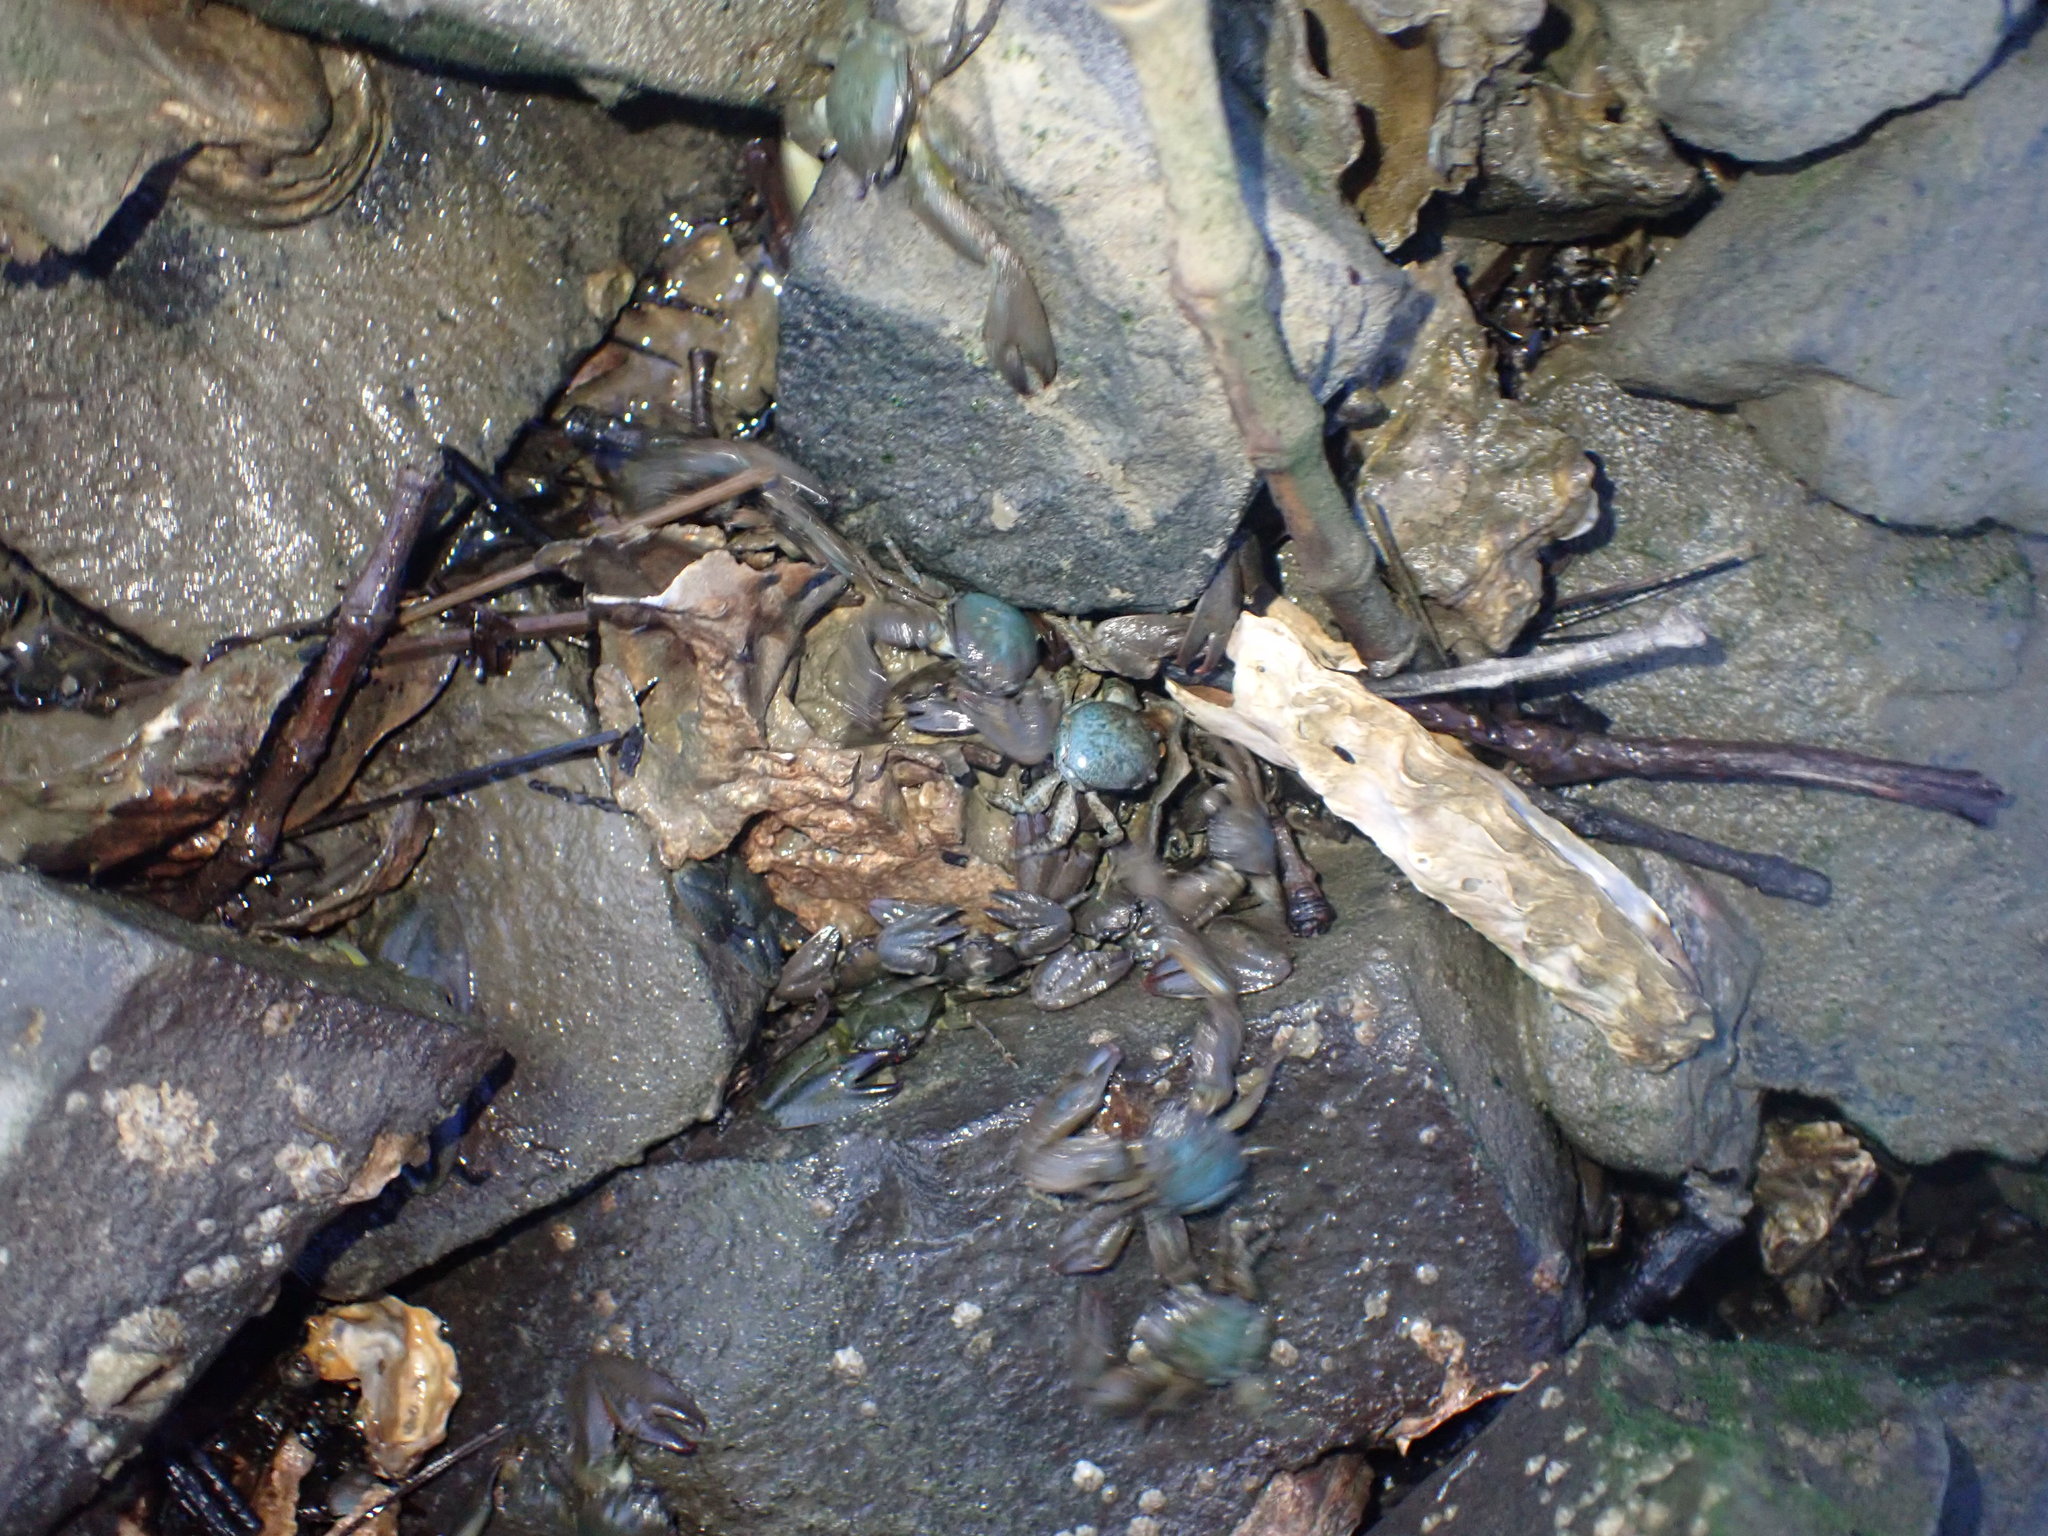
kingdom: Animalia
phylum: Arthropoda
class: Malacostraca
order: Decapoda
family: Porcellanidae
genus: Petrolisthes
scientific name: Petrolisthes elongatus
